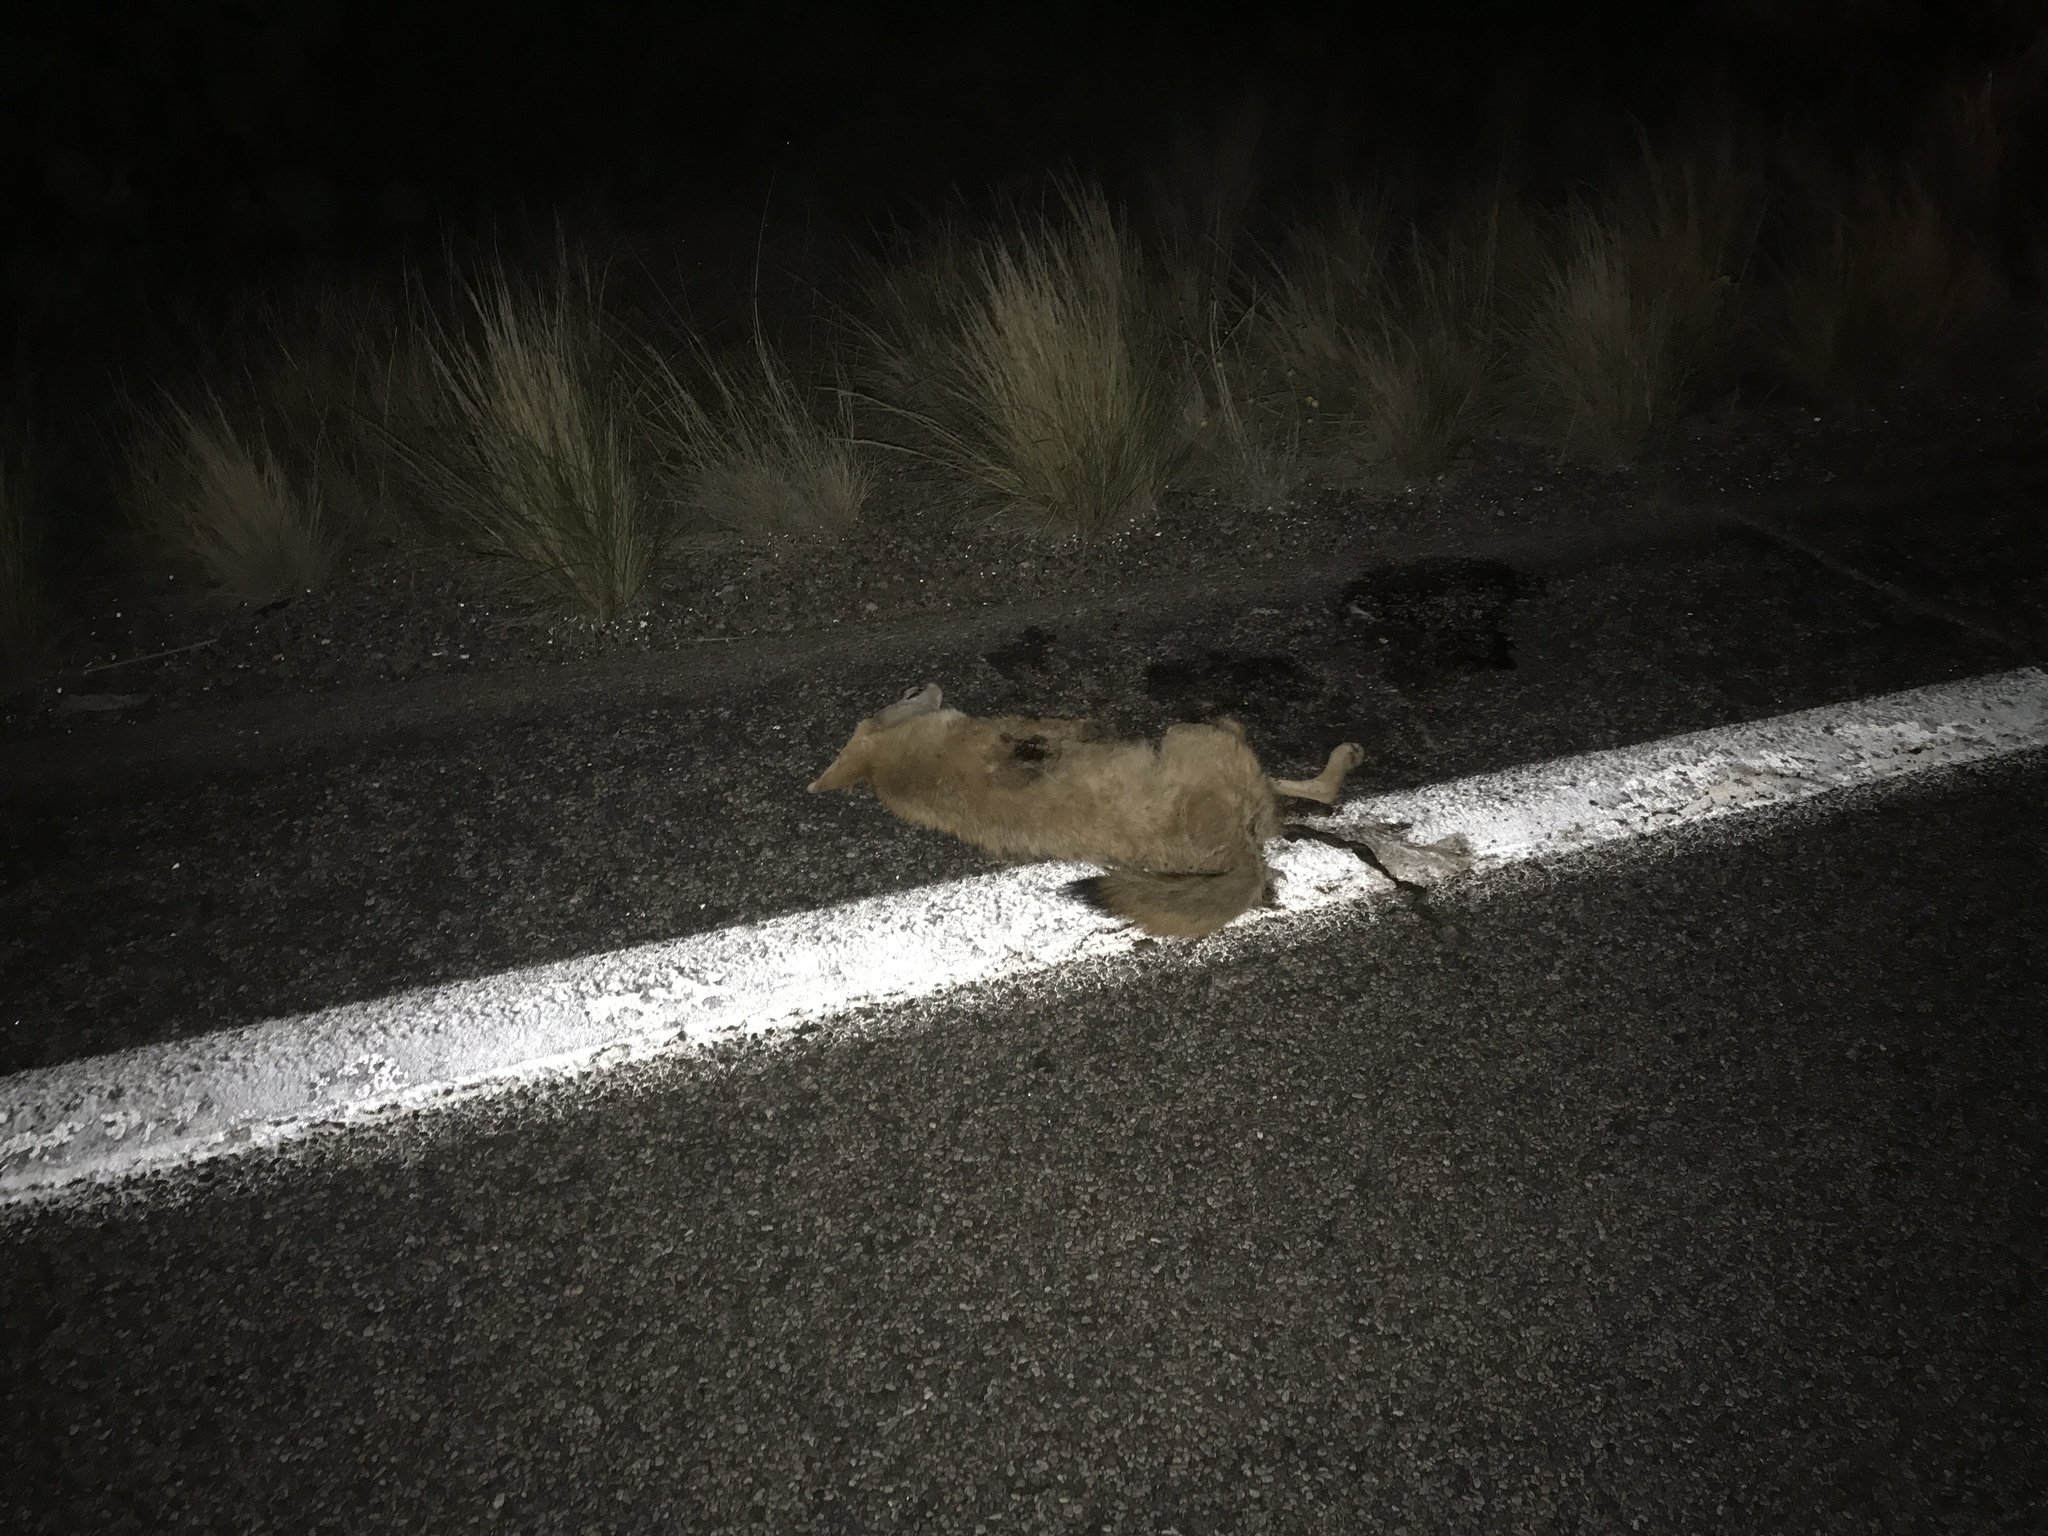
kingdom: Animalia
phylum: Chordata
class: Mammalia
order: Carnivora
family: Canidae
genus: Canis
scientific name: Canis latrans
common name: Coyote
